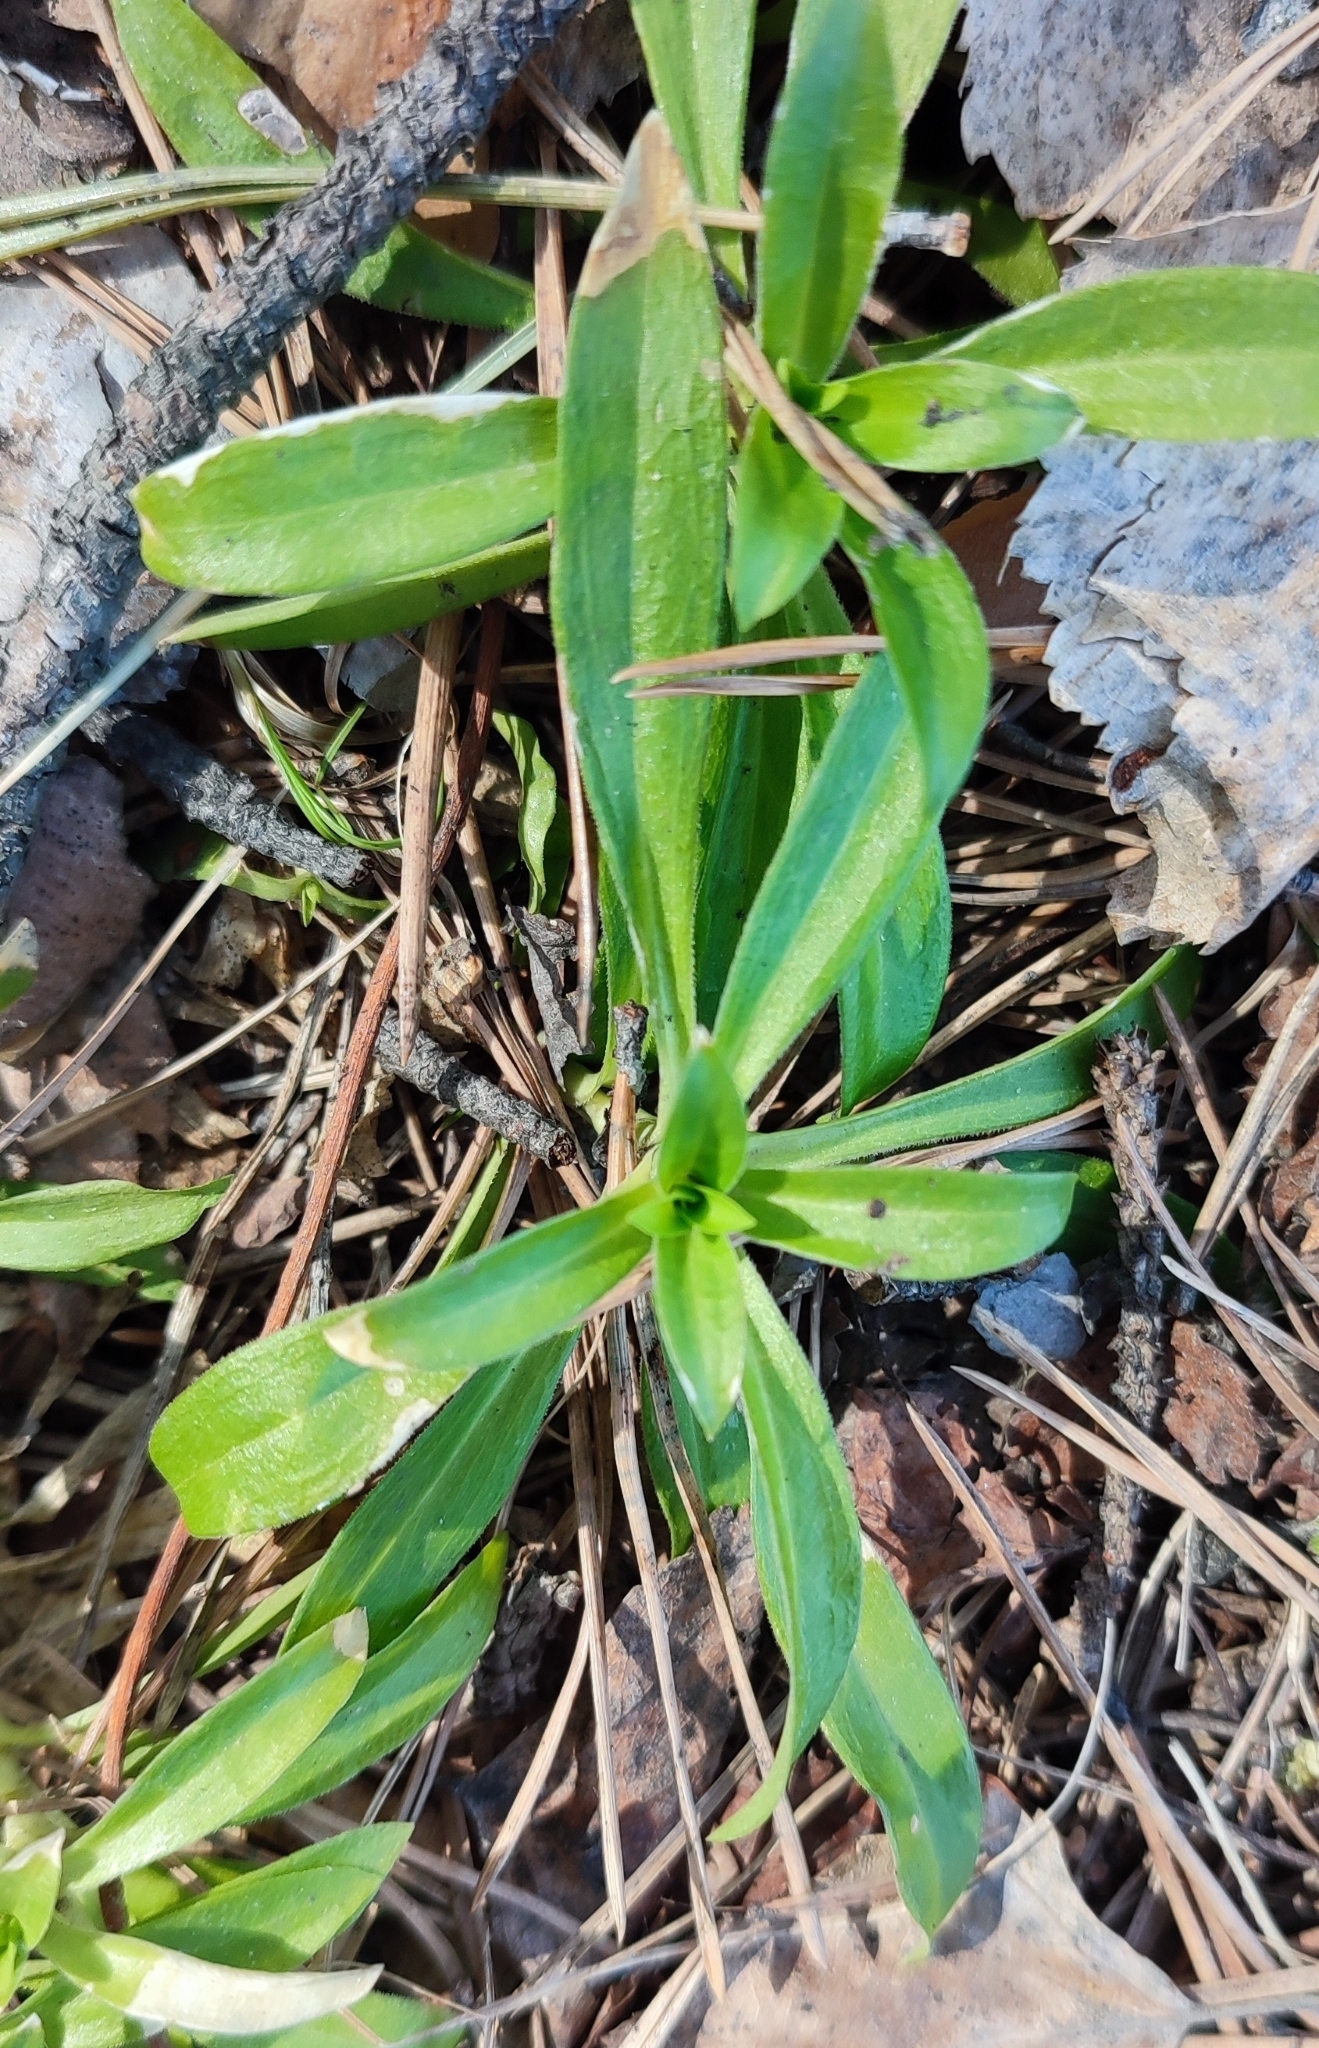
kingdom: Plantae
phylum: Tracheophyta
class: Magnoliopsida
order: Caryophyllales
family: Caryophyllaceae
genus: Dianthus
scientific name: Dianthus barbatus
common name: Sweet-william
